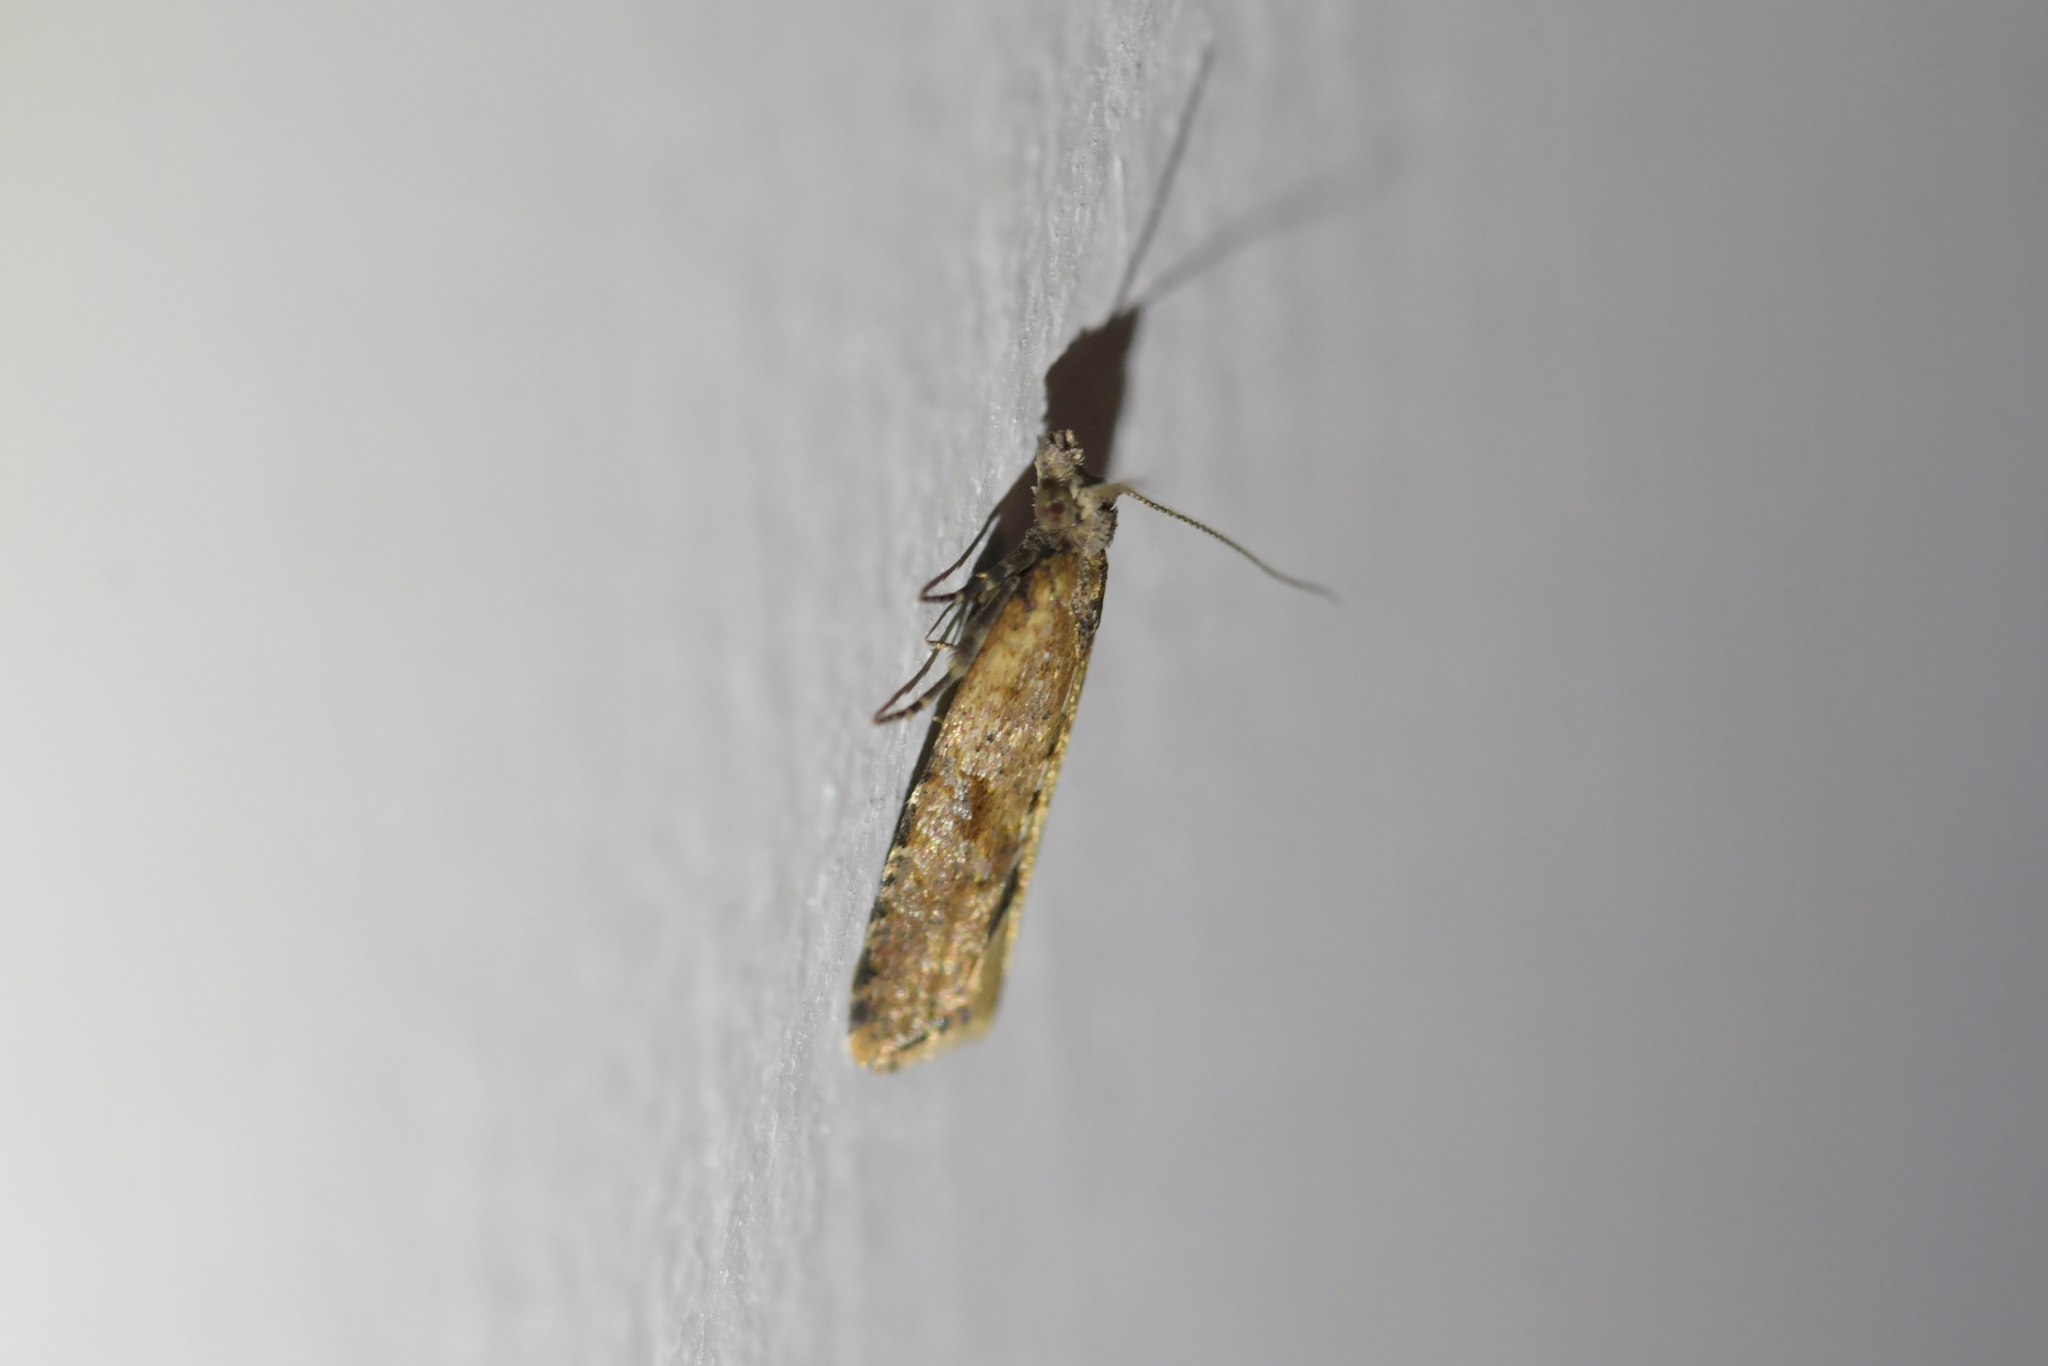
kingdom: Animalia
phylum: Arthropoda
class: Insecta
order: Lepidoptera
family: Tortricidae
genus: Capua
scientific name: Capua semiferana
